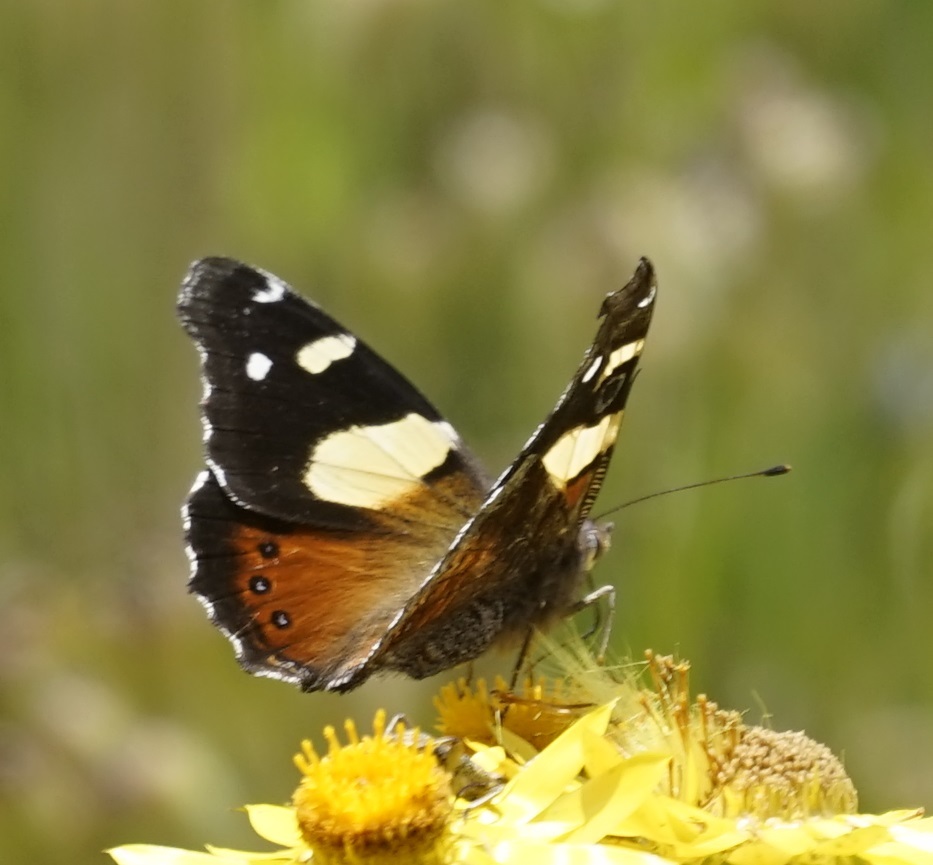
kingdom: Animalia
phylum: Arthropoda
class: Insecta
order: Lepidoptera
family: Nymphalidae
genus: Vanessa
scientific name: Vanessa itea
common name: Yellow admiral
